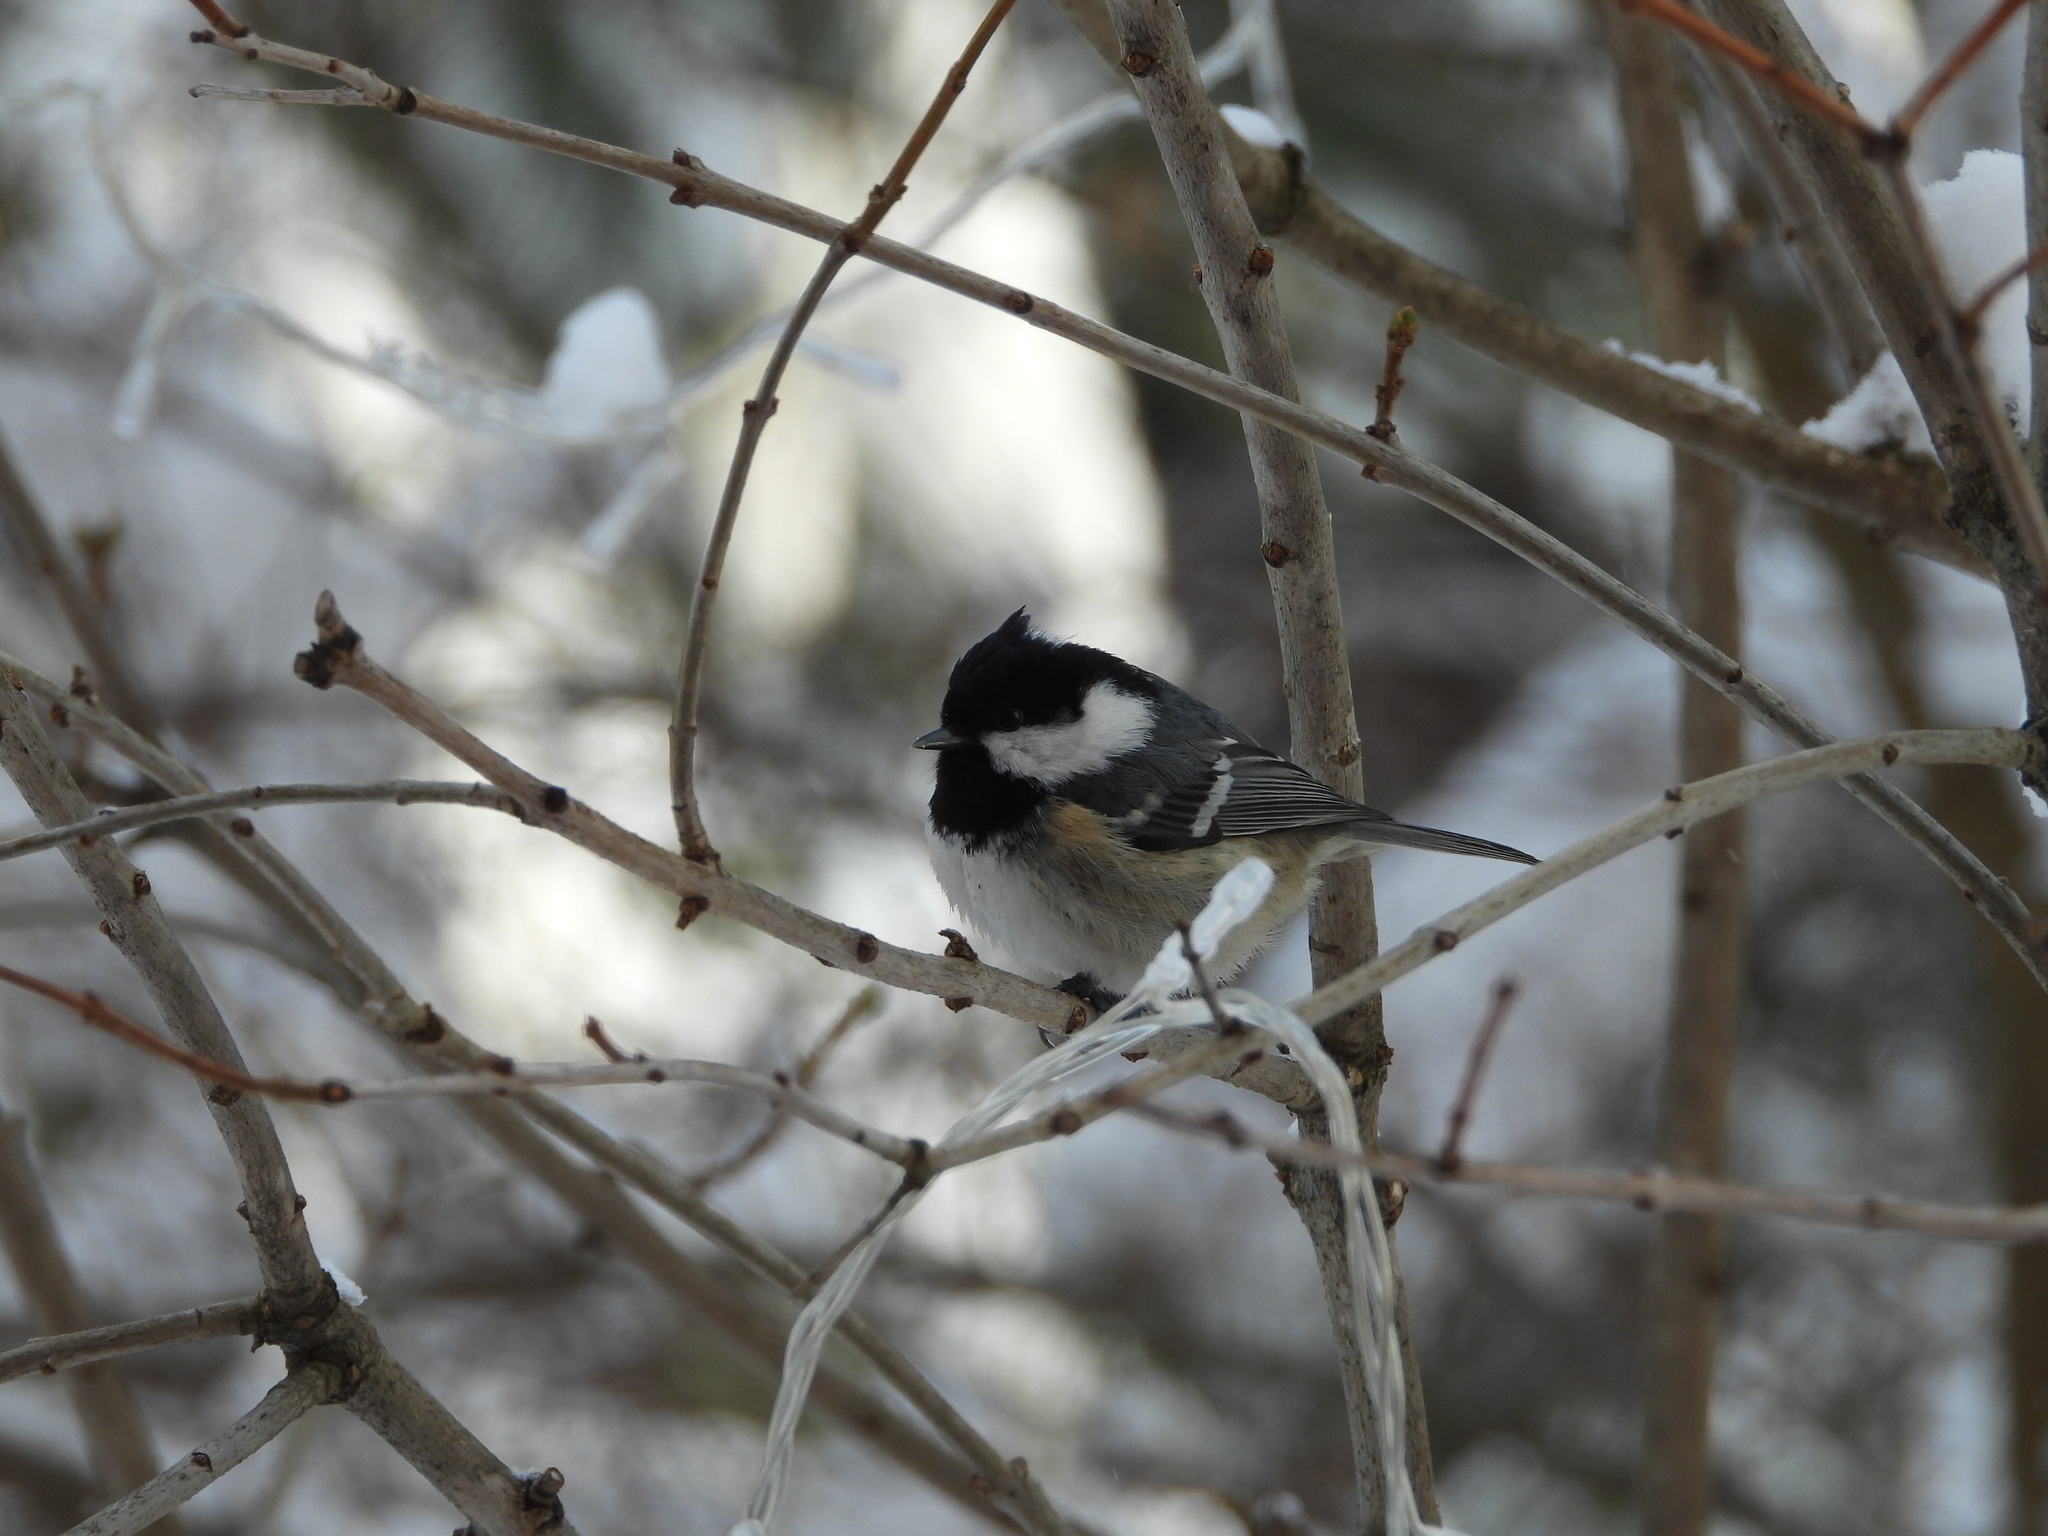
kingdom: Animalia
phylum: Chordata
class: Aves
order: Passeriformes
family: Paridae
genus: Periparus
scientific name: Periparus ater
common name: Coal tit
